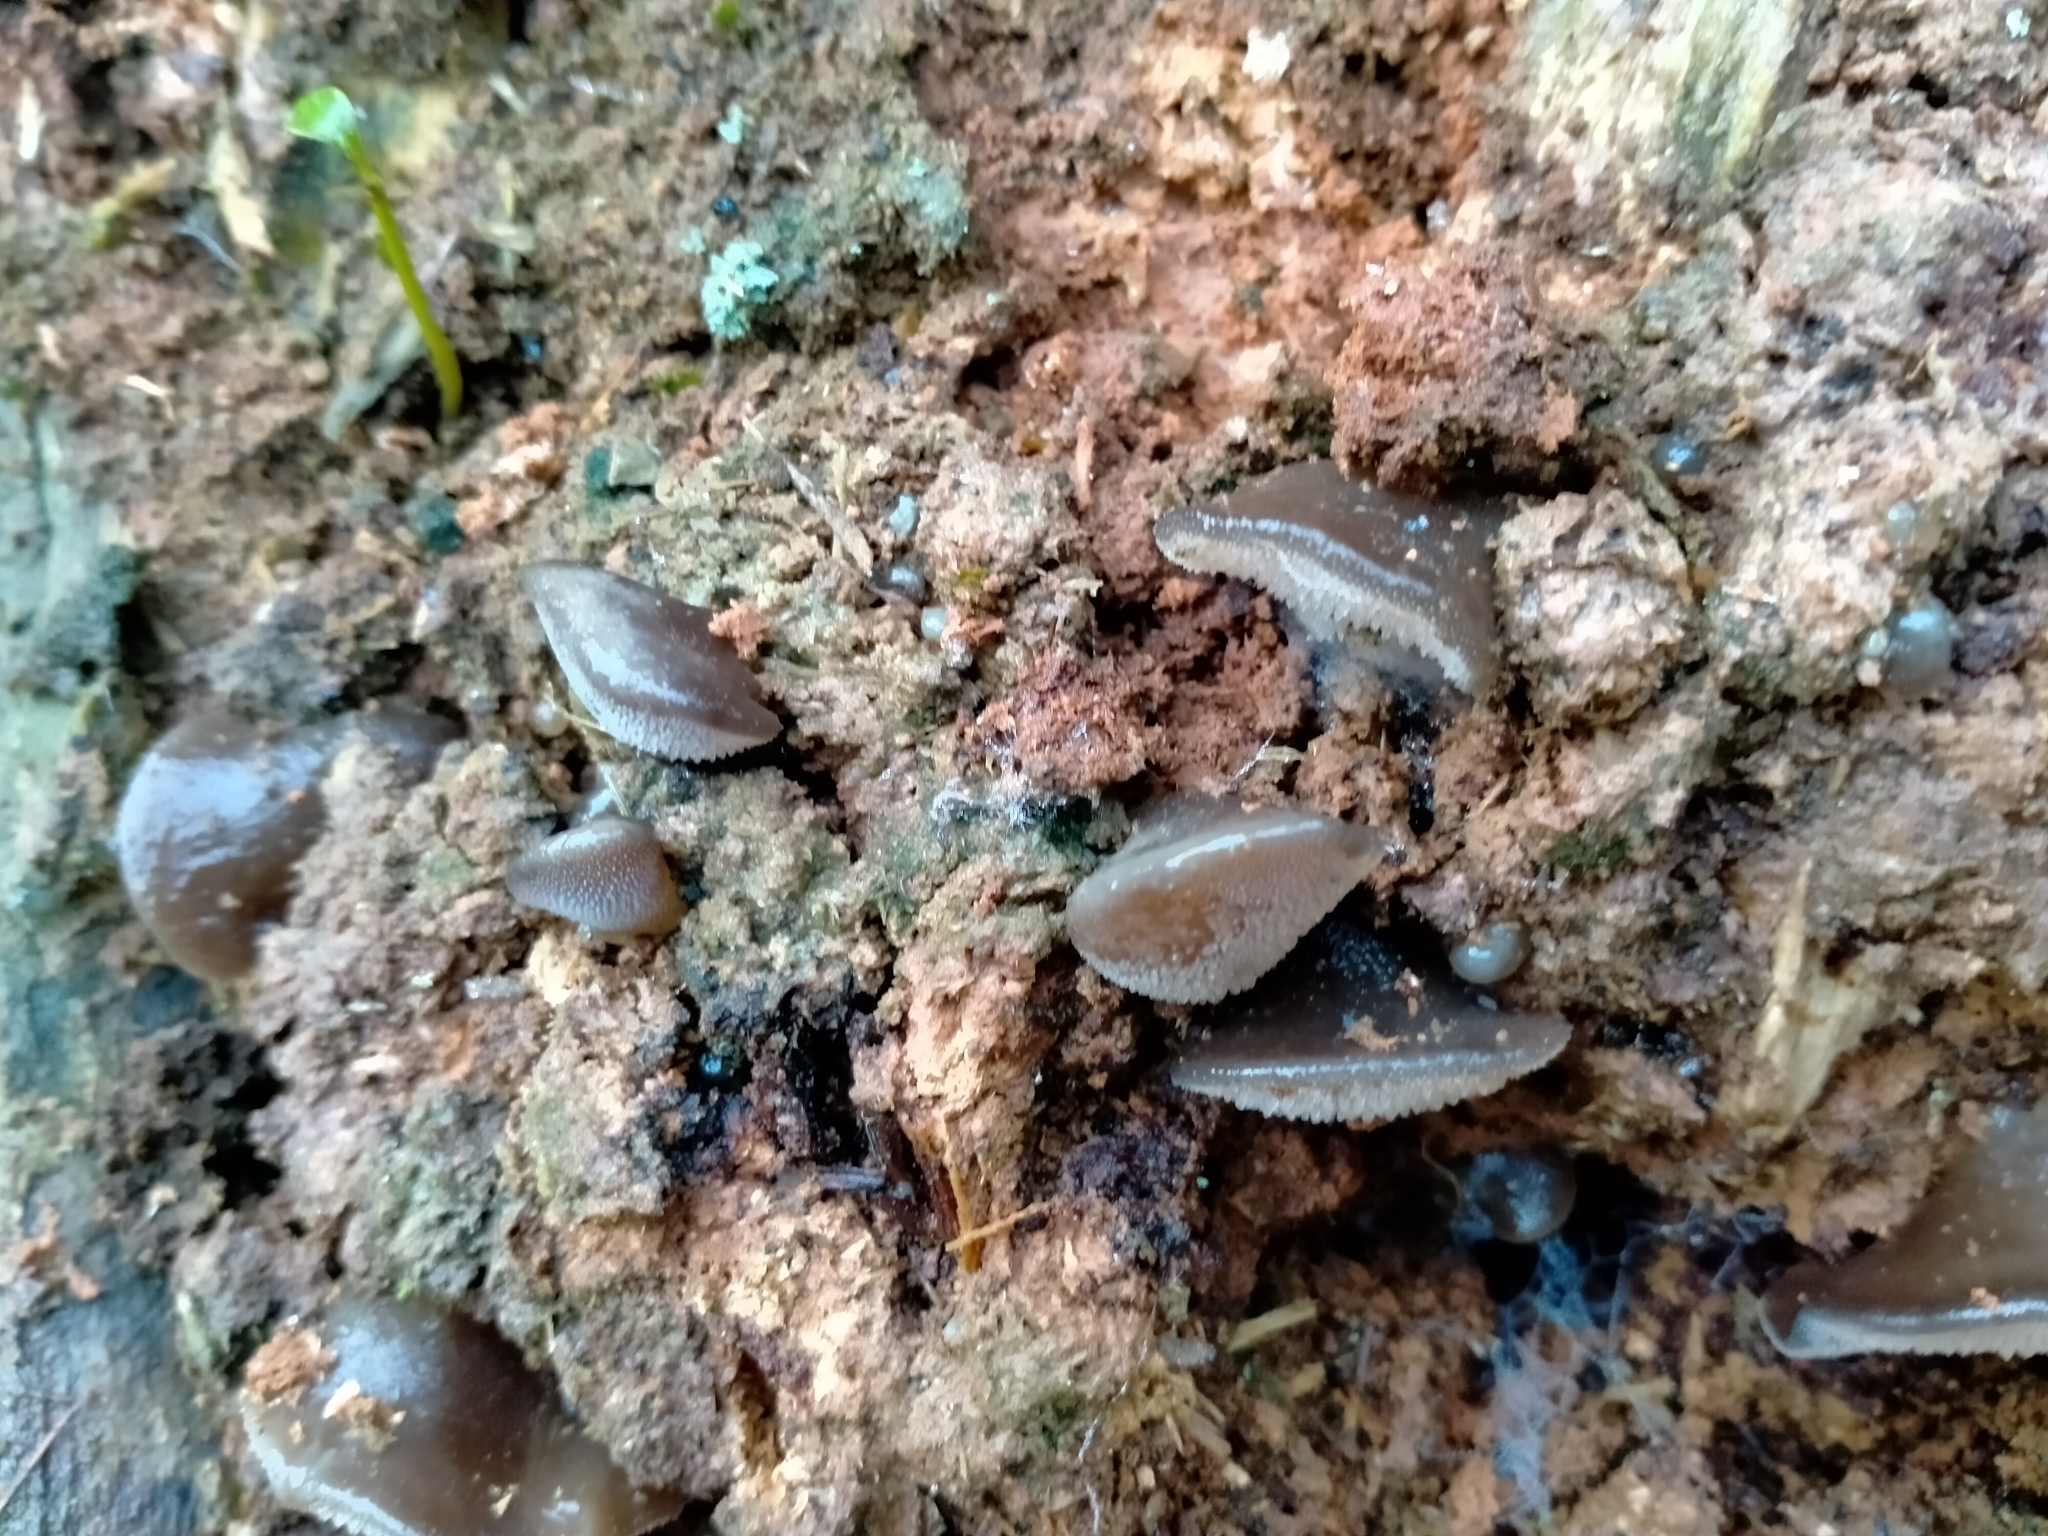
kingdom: Fungi
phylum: Basidiomycota
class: Agaricomycetes
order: Auriculariales
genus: Pseudohydnum
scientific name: Pseudohydnum orbiculare
